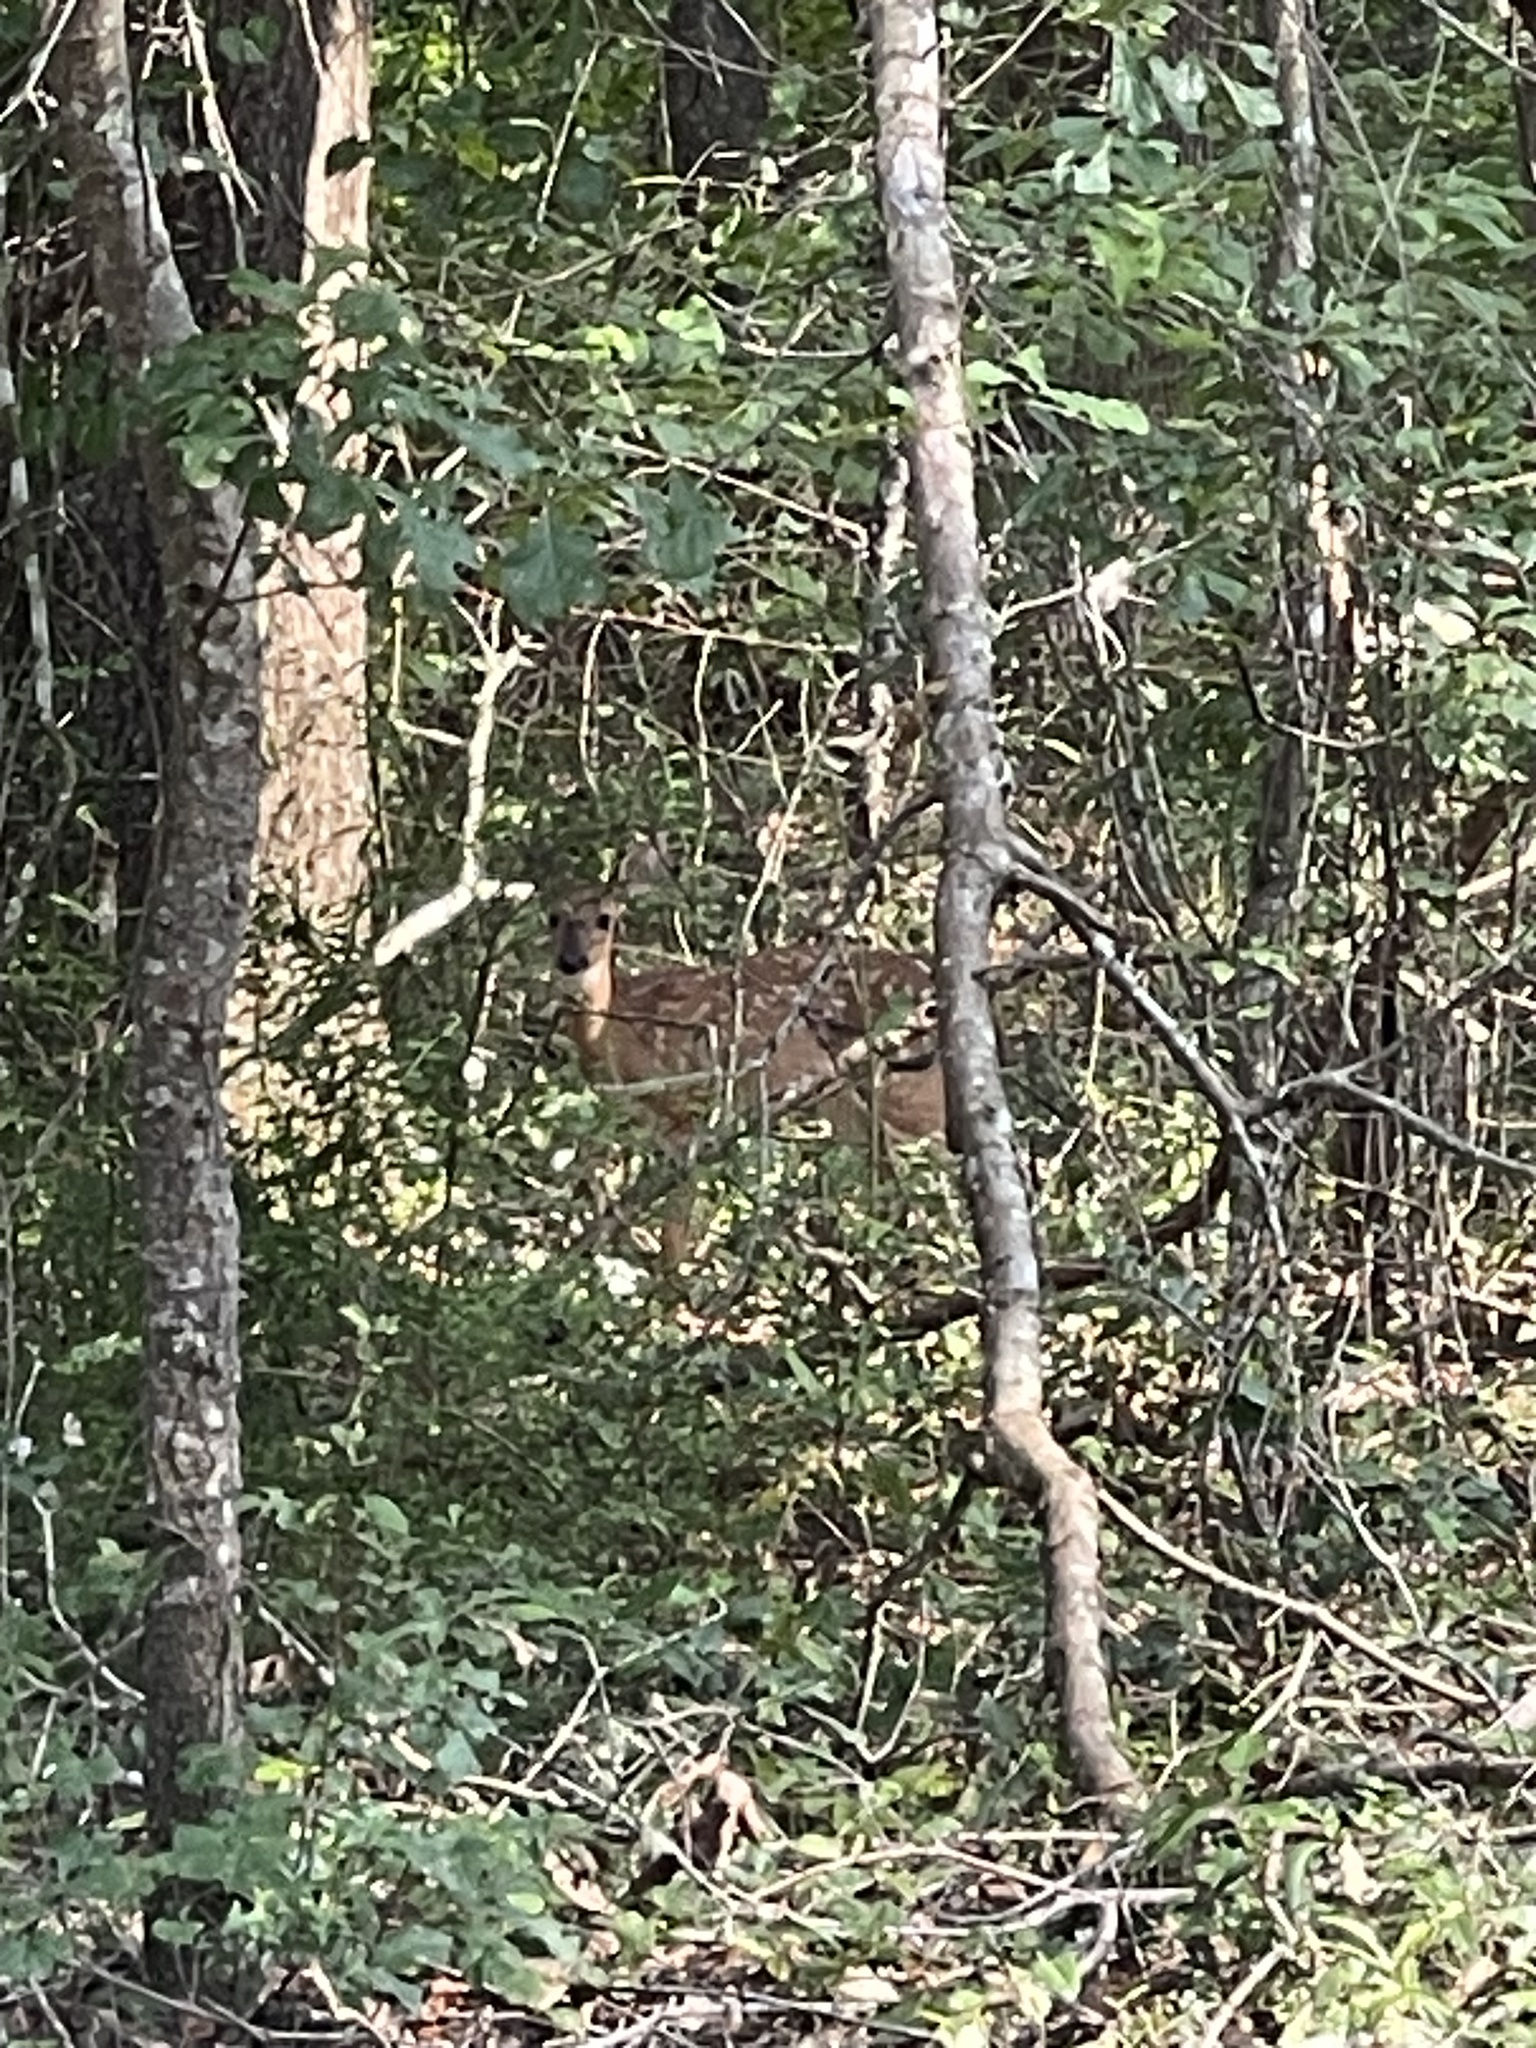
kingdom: Animalia
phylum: Chordata
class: Mammalia
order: Artiodactyla
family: Cervidae
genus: Odocoileus
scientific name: Odocoileus virginianus
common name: White-tailed deer
